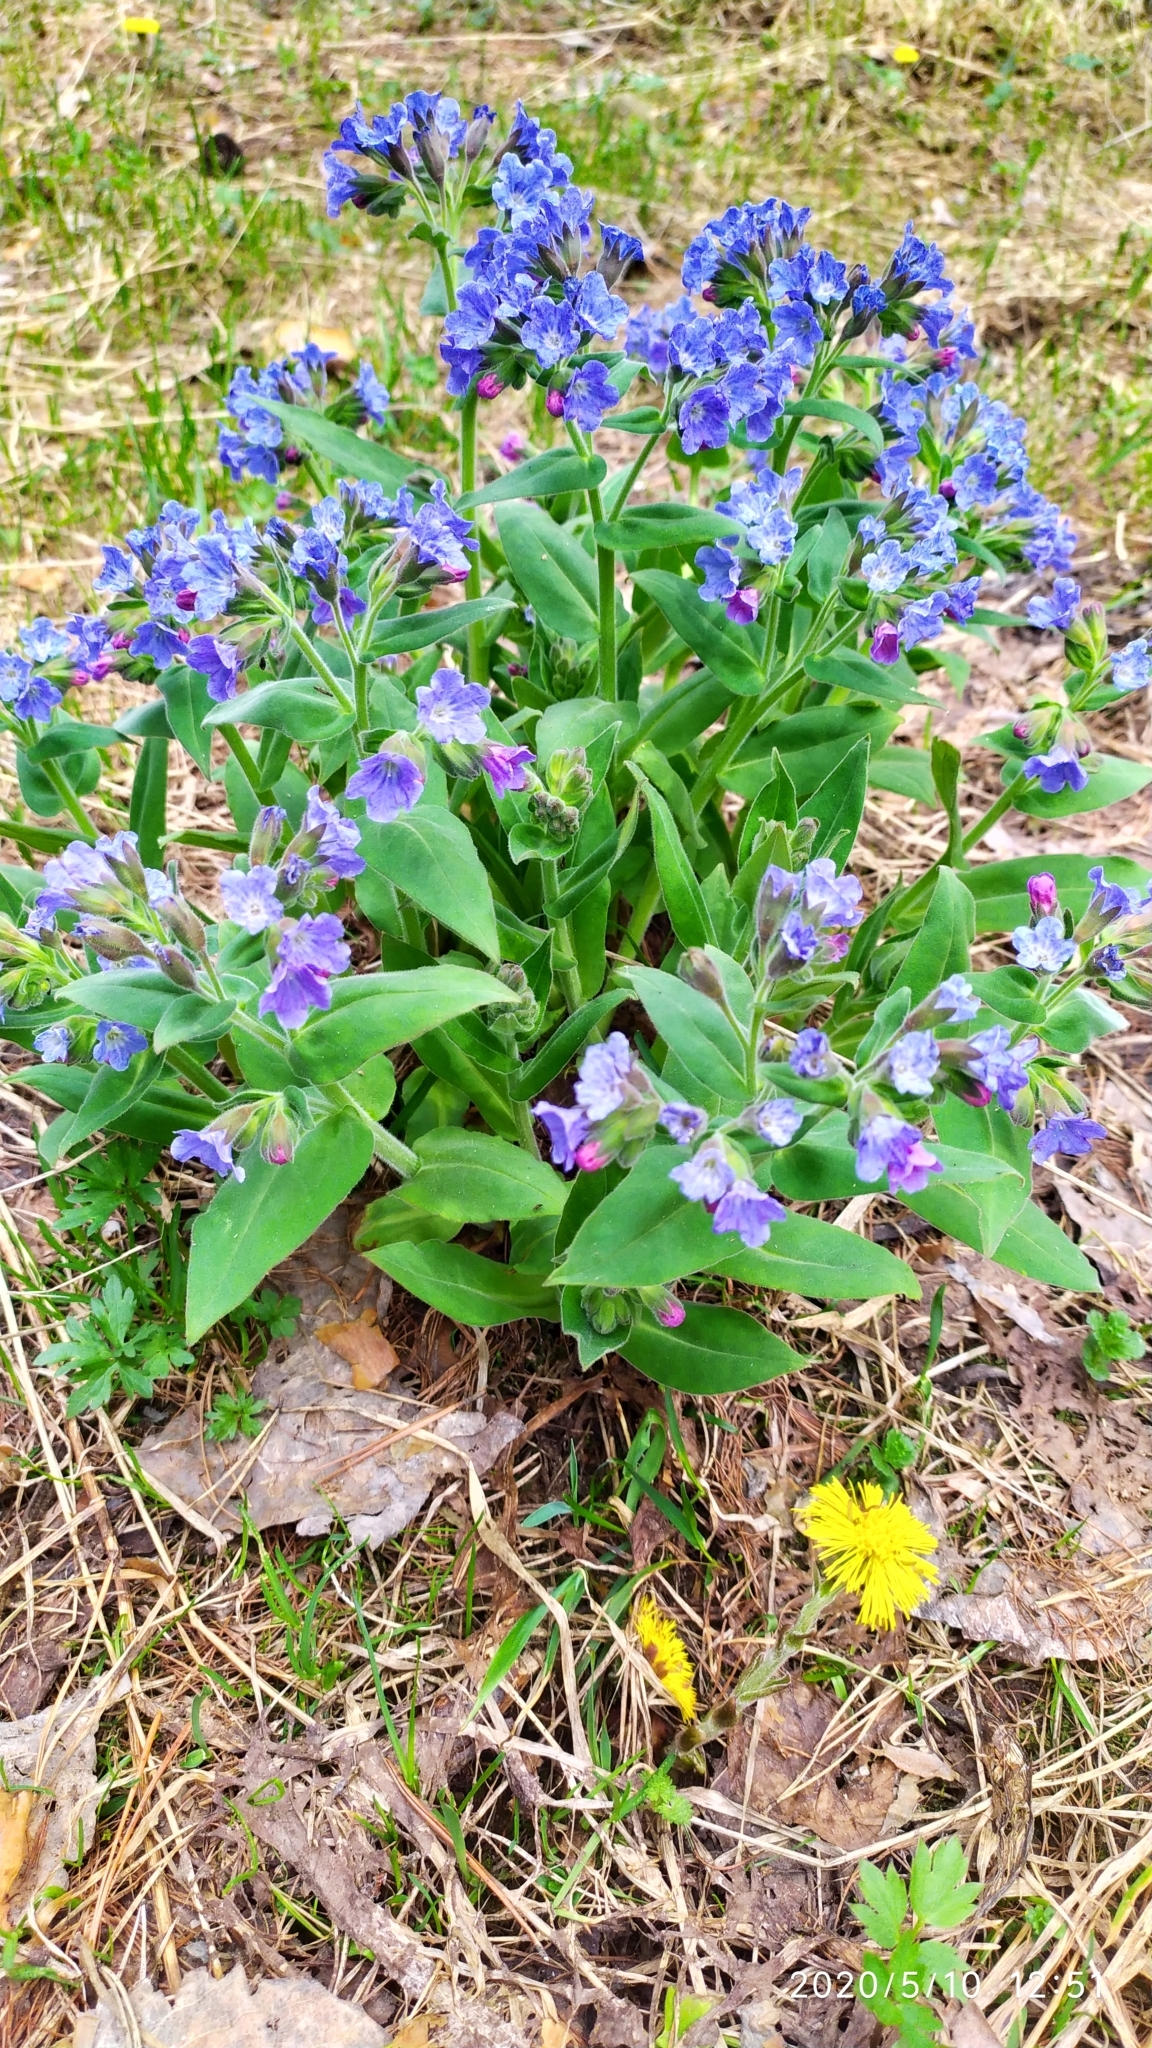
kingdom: Plantae
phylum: Tracheophyta
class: Magnoliopsida
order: Boraginales
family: Boraginaceae
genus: Pulmonaria
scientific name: Pulmonaria mollis
